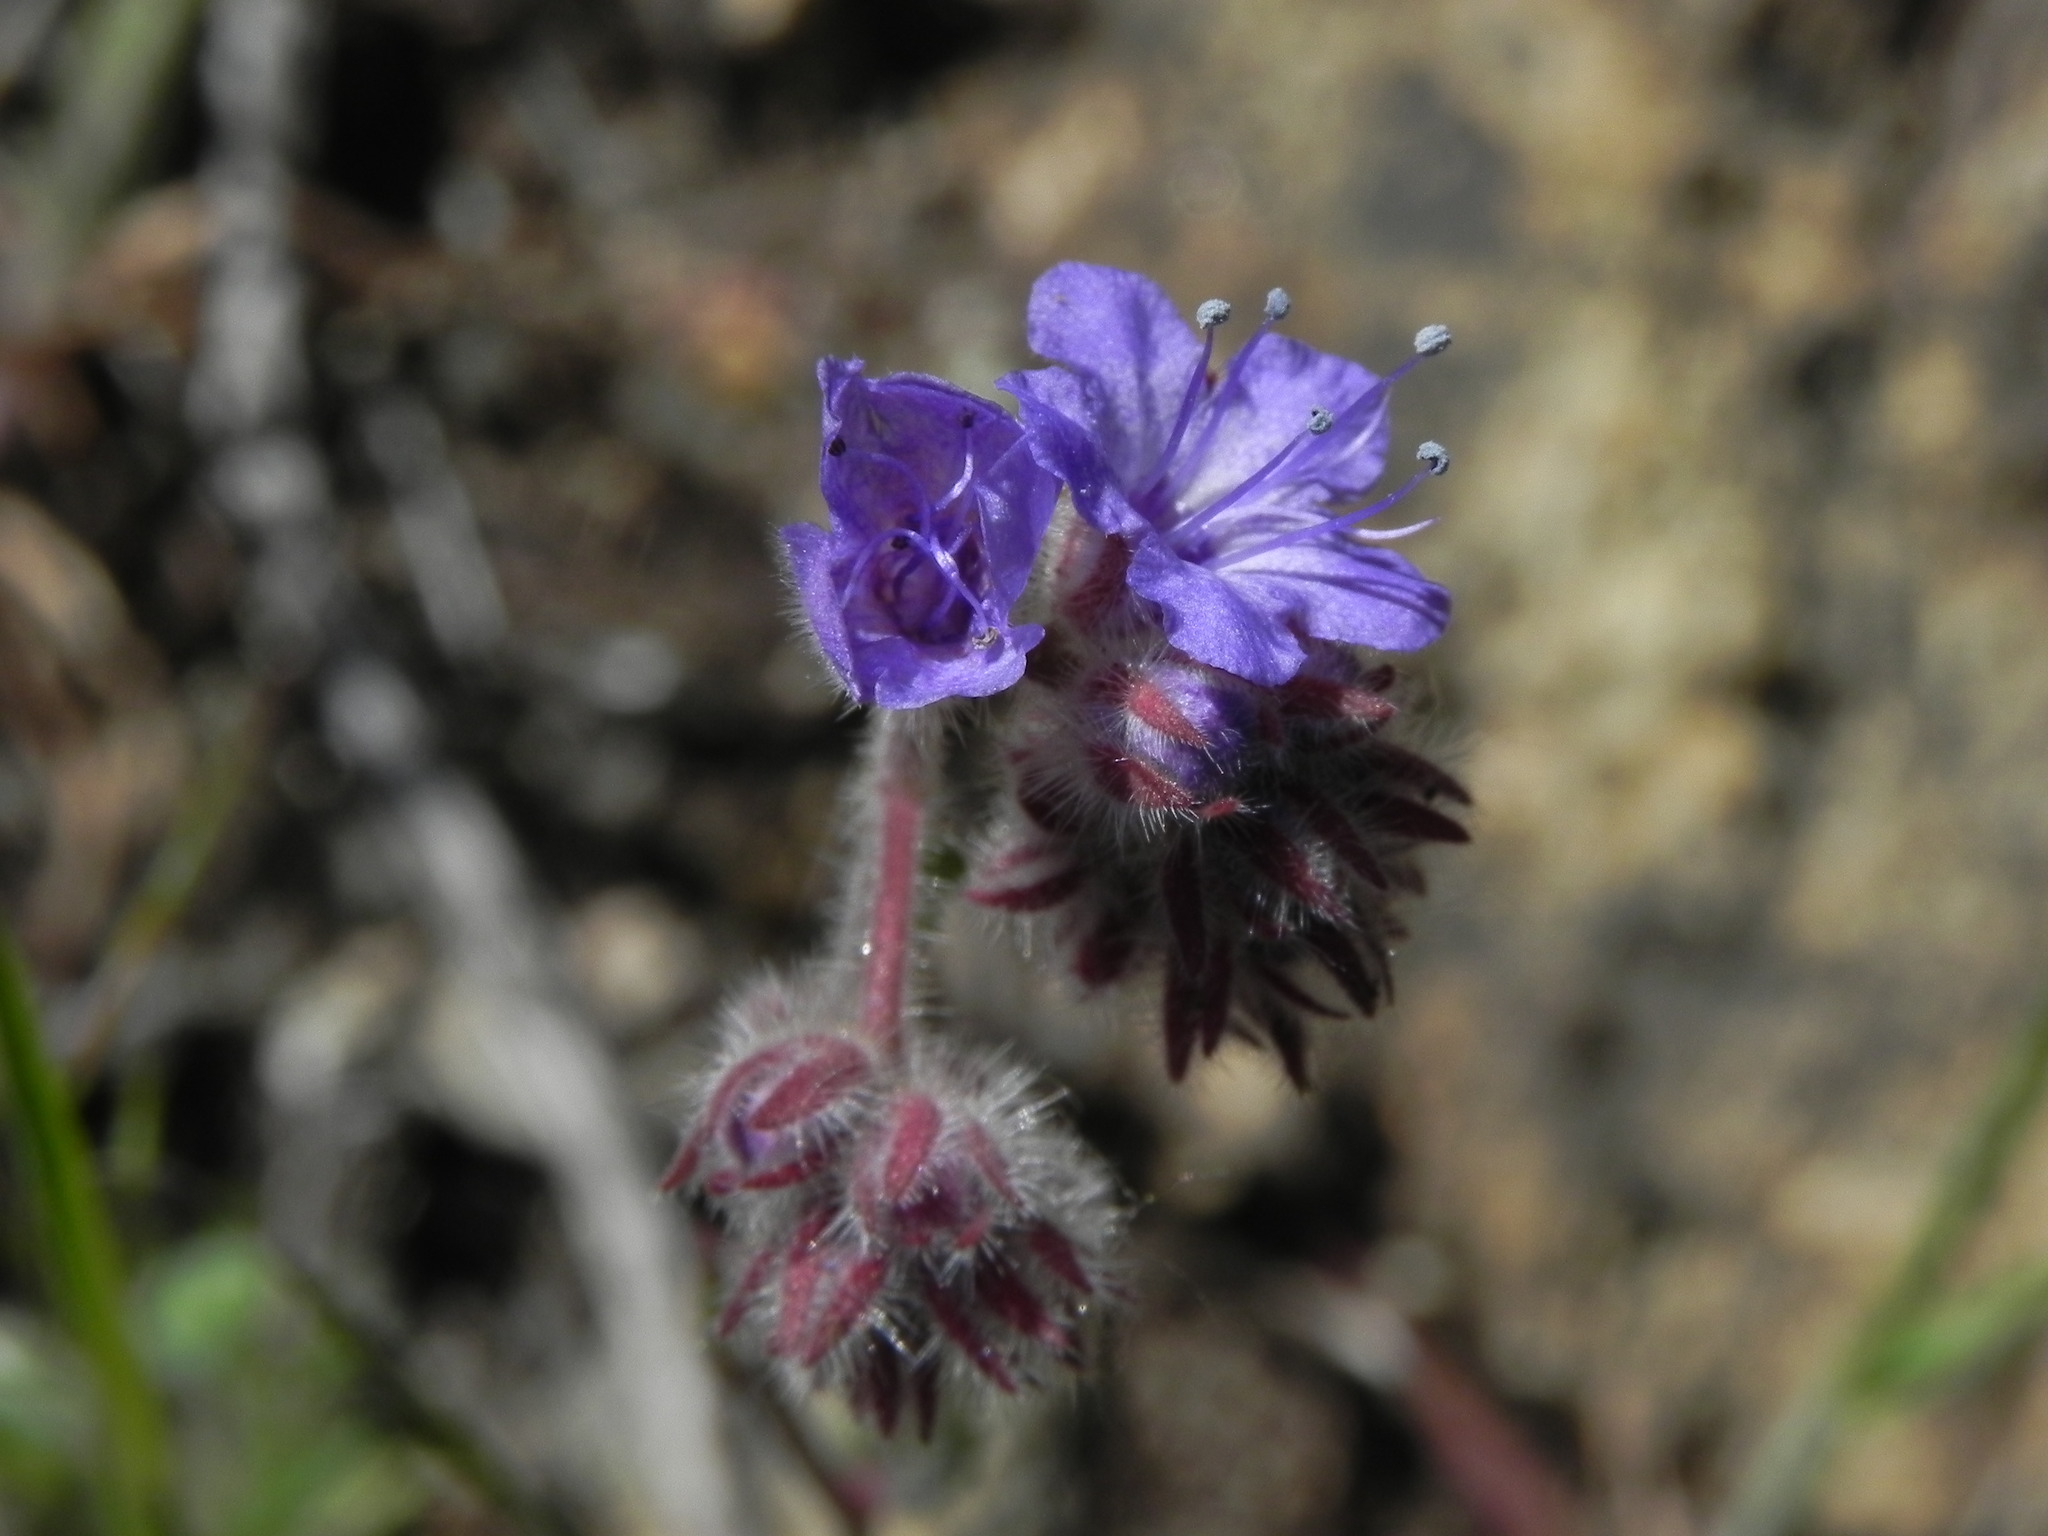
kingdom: Plantae
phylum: Tracheophyta
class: Magnoliopsida
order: Boraginales
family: Hydrophyllaceae
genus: Phacelia
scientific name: Phacelia distans
